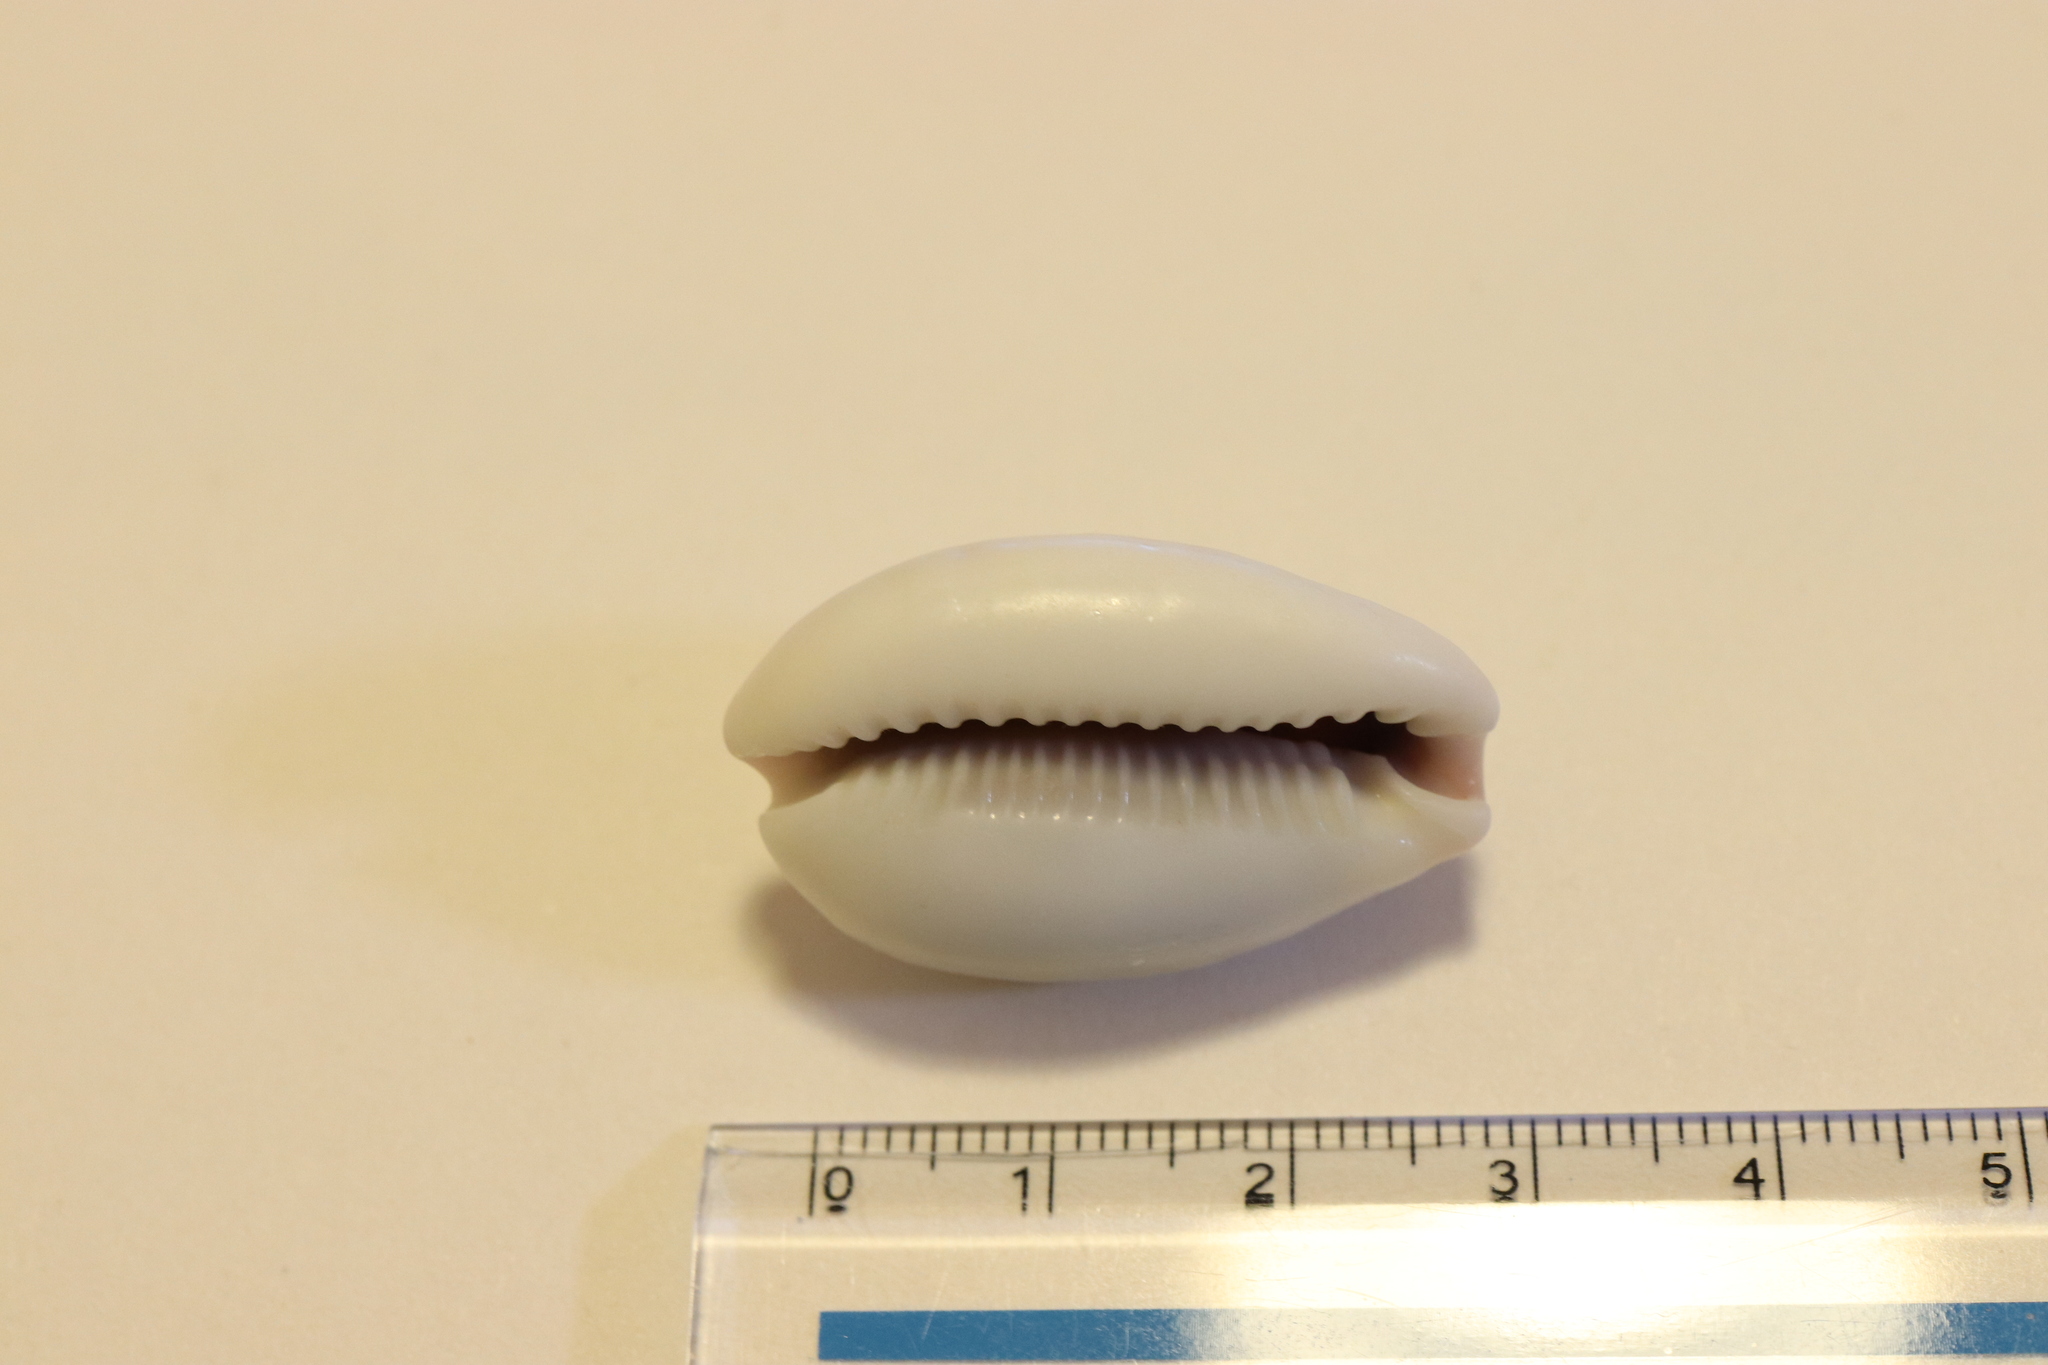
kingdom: Animalia
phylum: Mollusca
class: Gastropoda
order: Littorinimorpha
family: Cypraeidae
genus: Naria
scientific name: Naria boivinii
